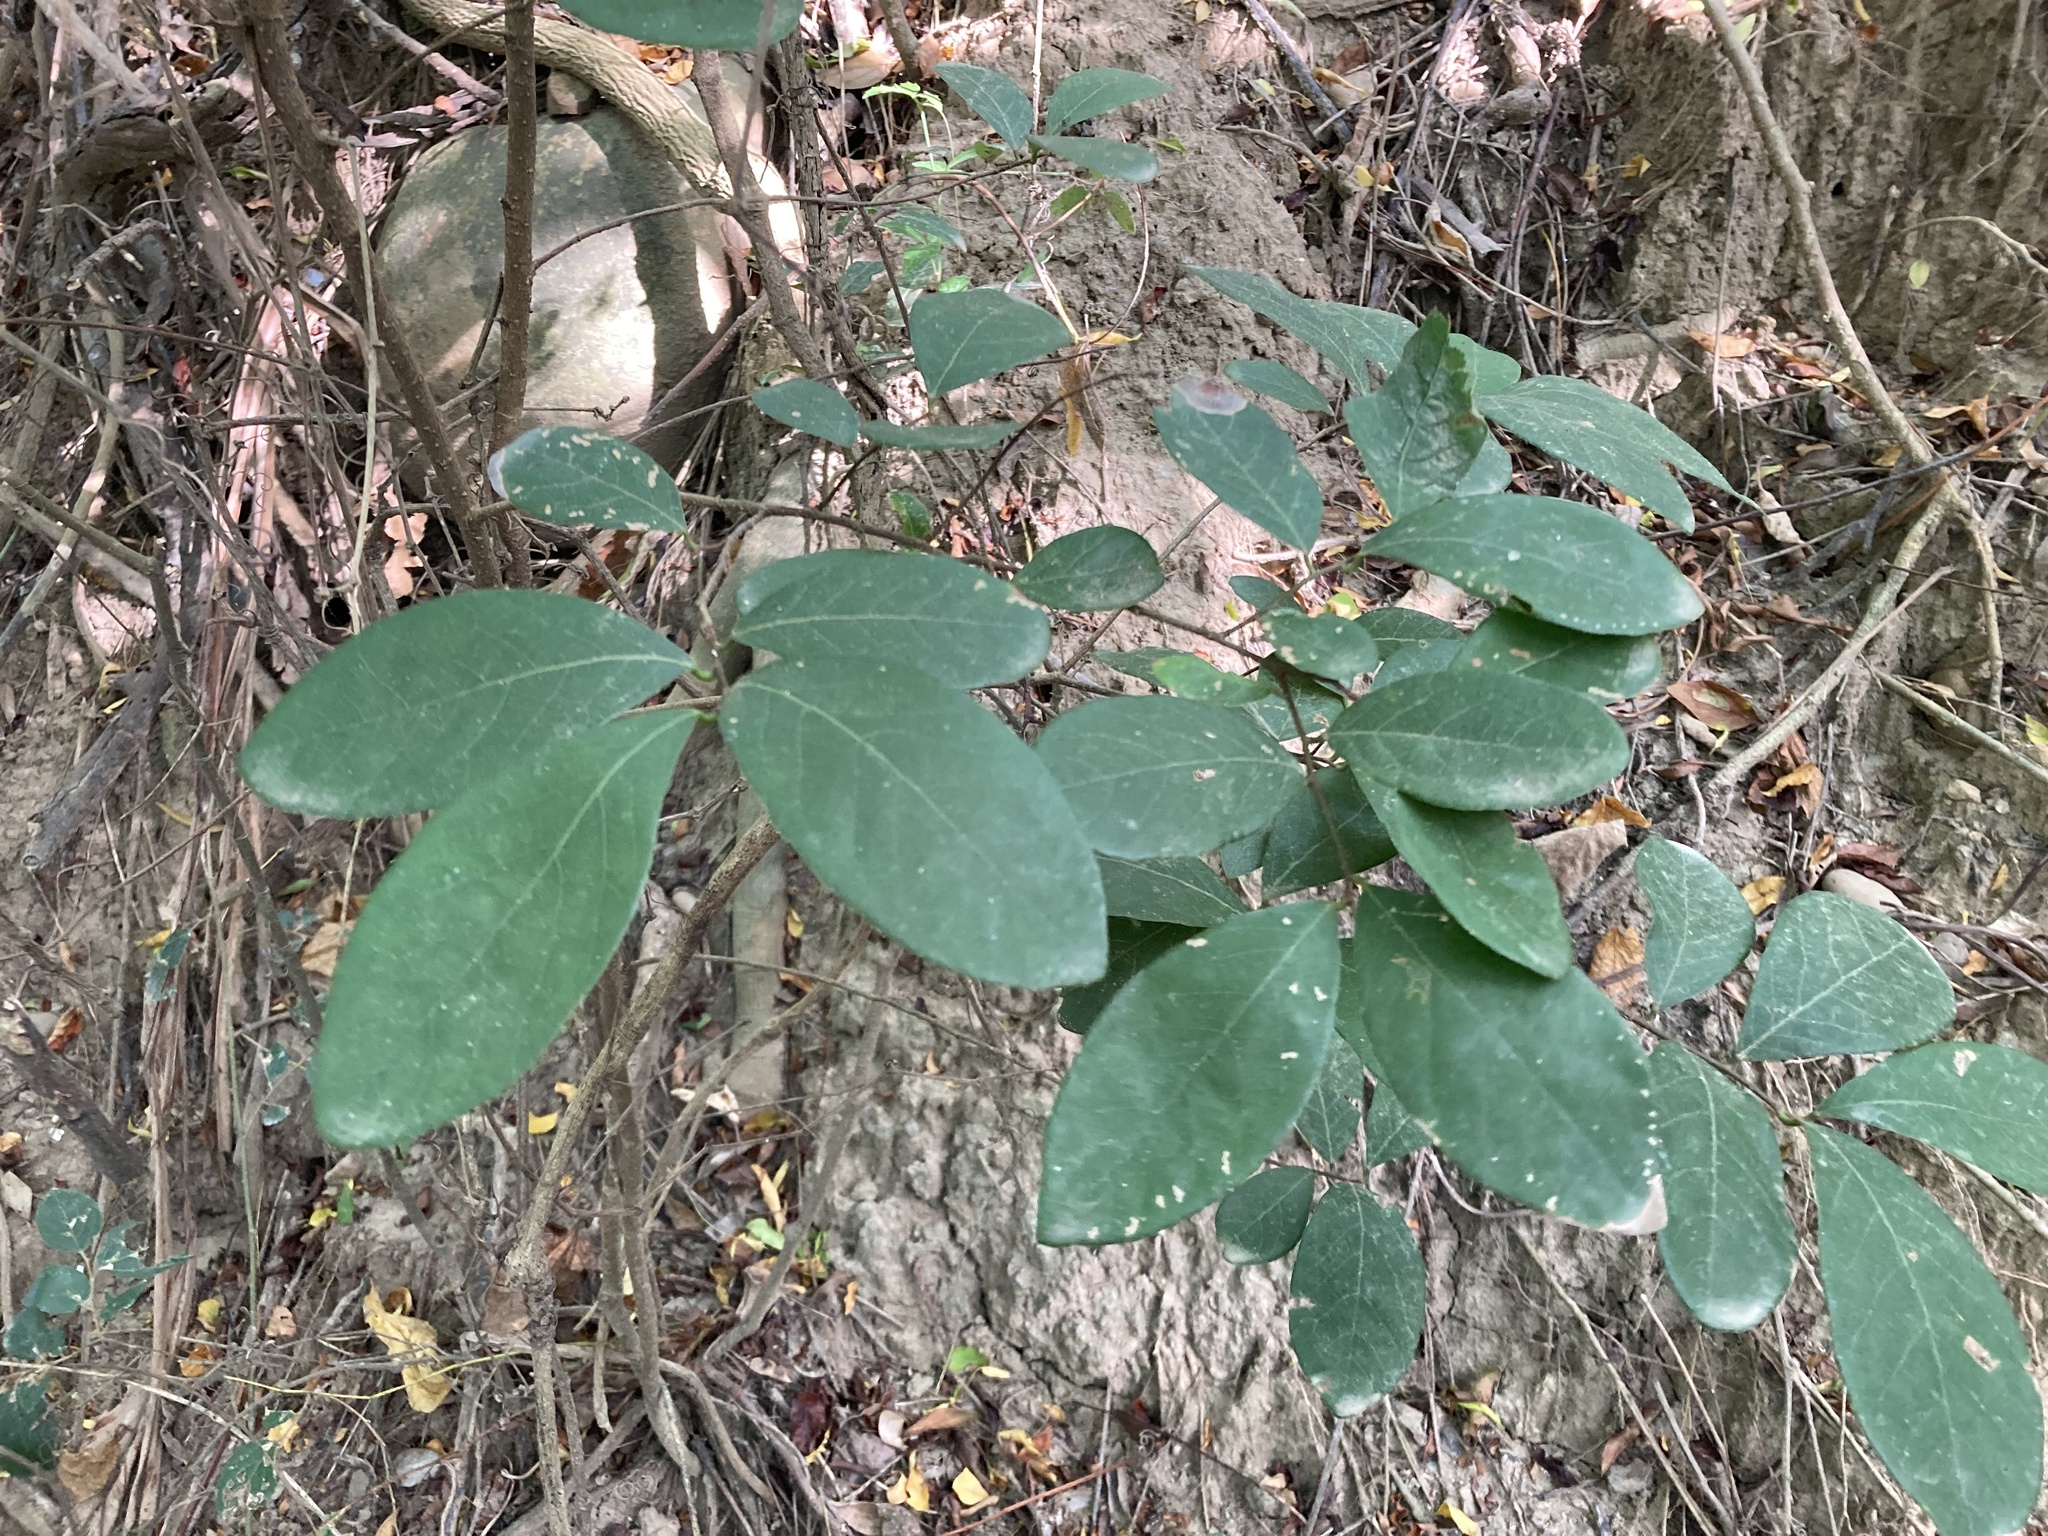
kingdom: Plantae
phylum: Tracheophyta
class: Magnoliopsida
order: Malpighiales
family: Phyllanthaceae
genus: Bridelia
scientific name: Bridelia tomentosa
